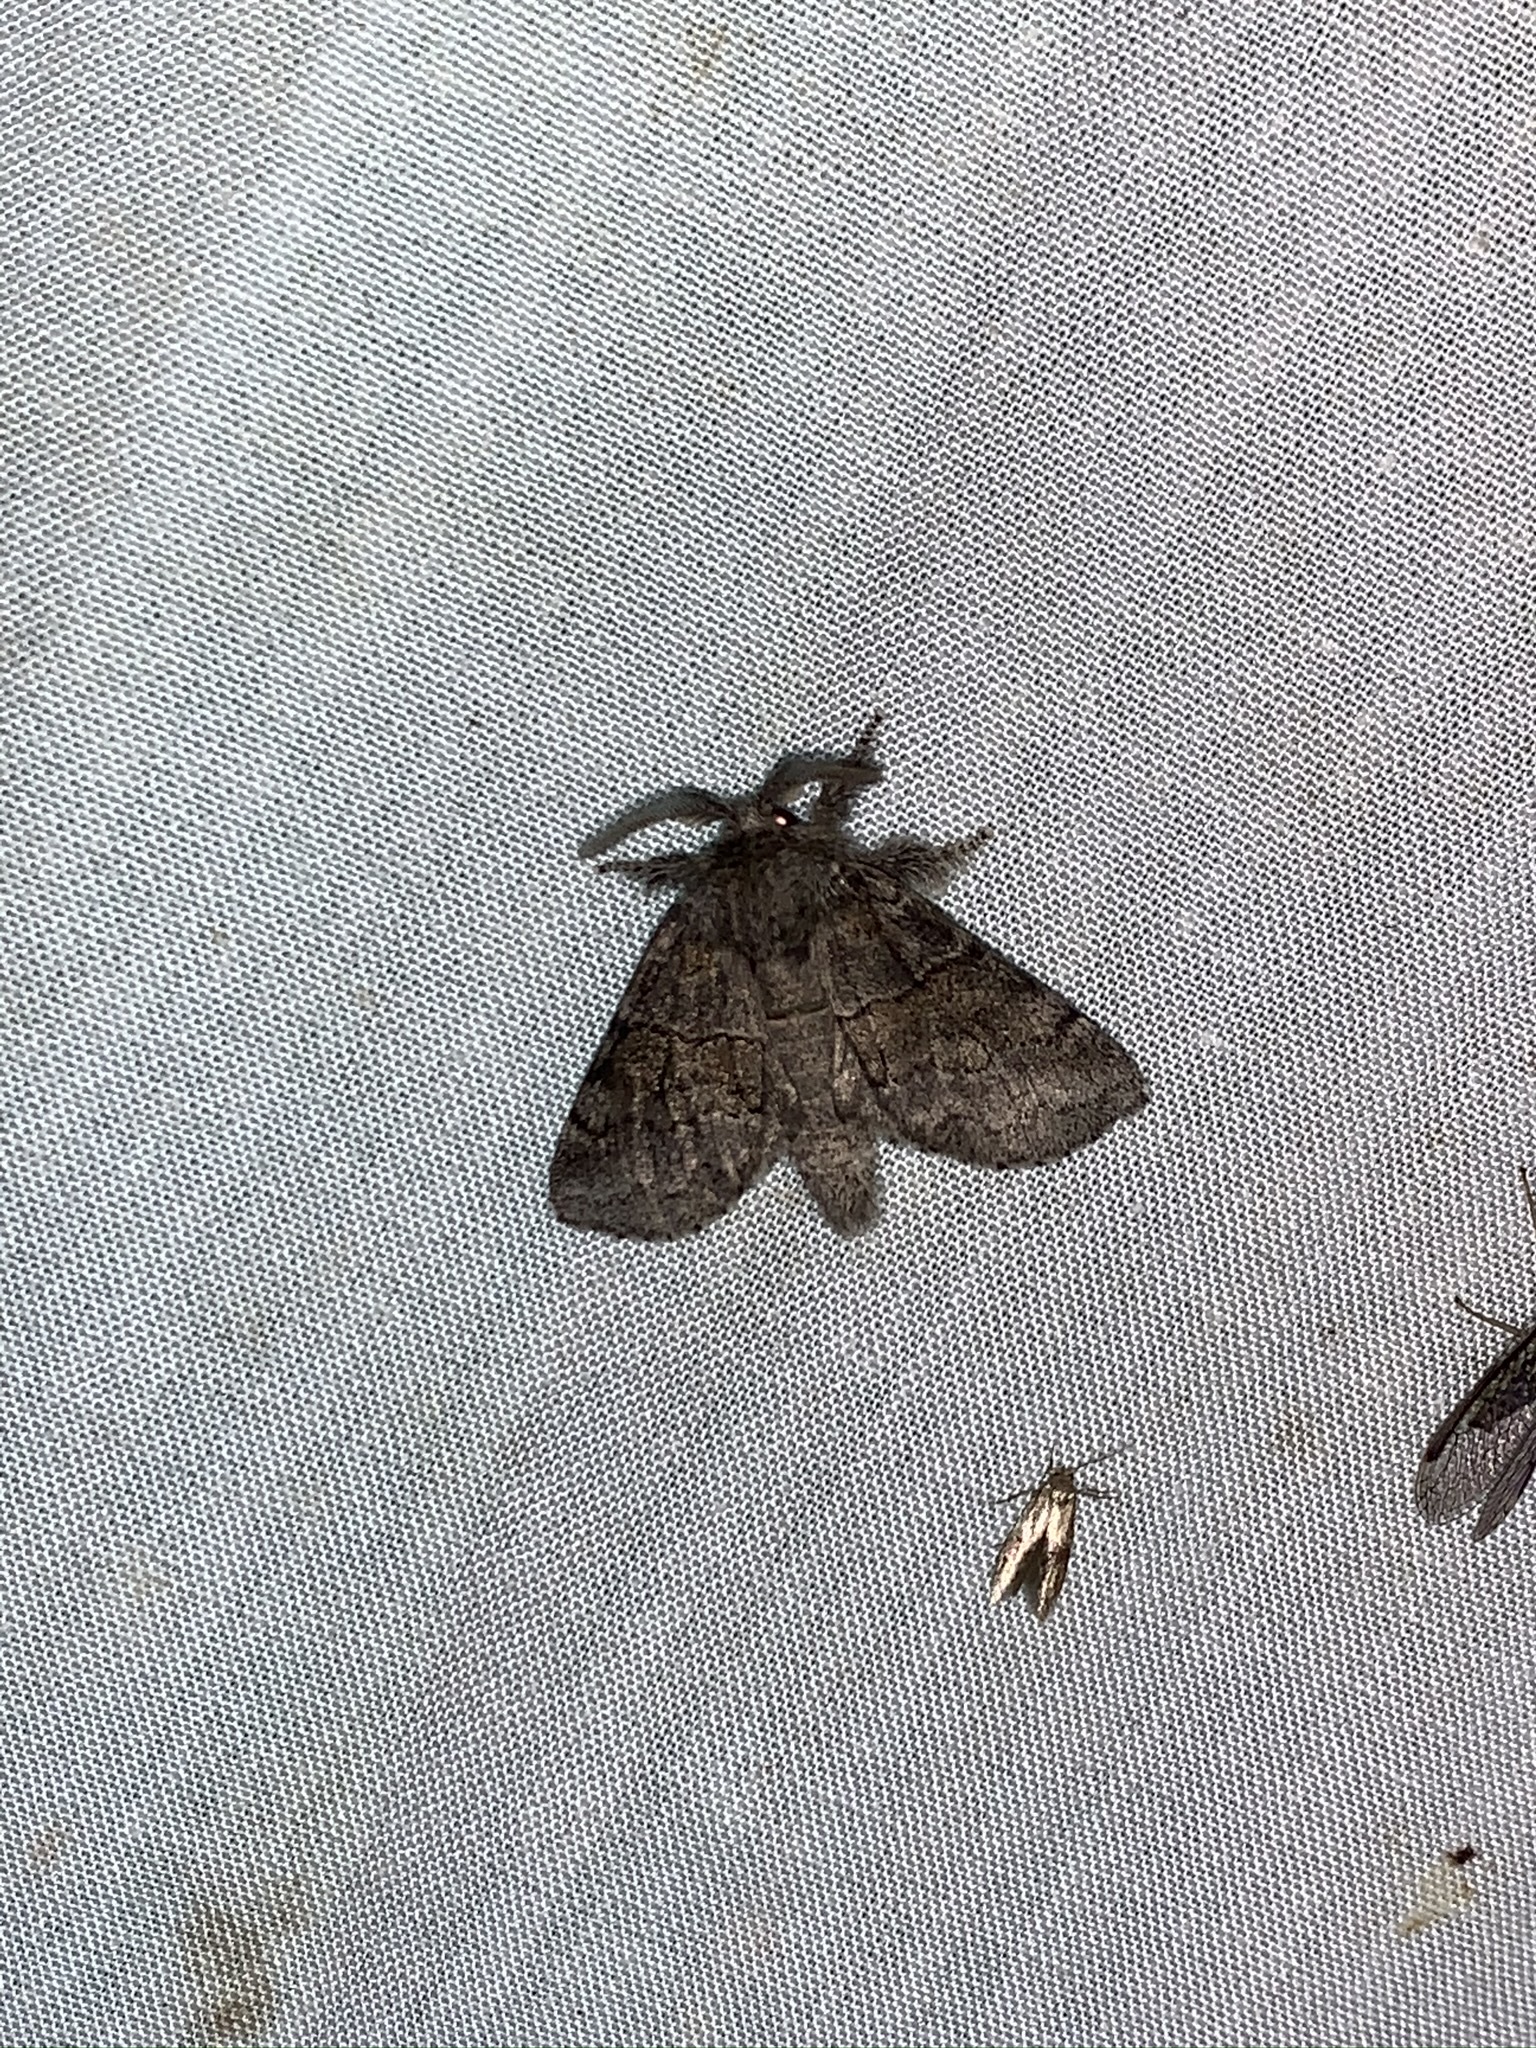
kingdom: Animalia
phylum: Arthropoda
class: Insecta
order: Lepidoptera
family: Notodontidae
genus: Gluphisia
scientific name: Gluphisia septentrionis
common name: Common gluphisia
